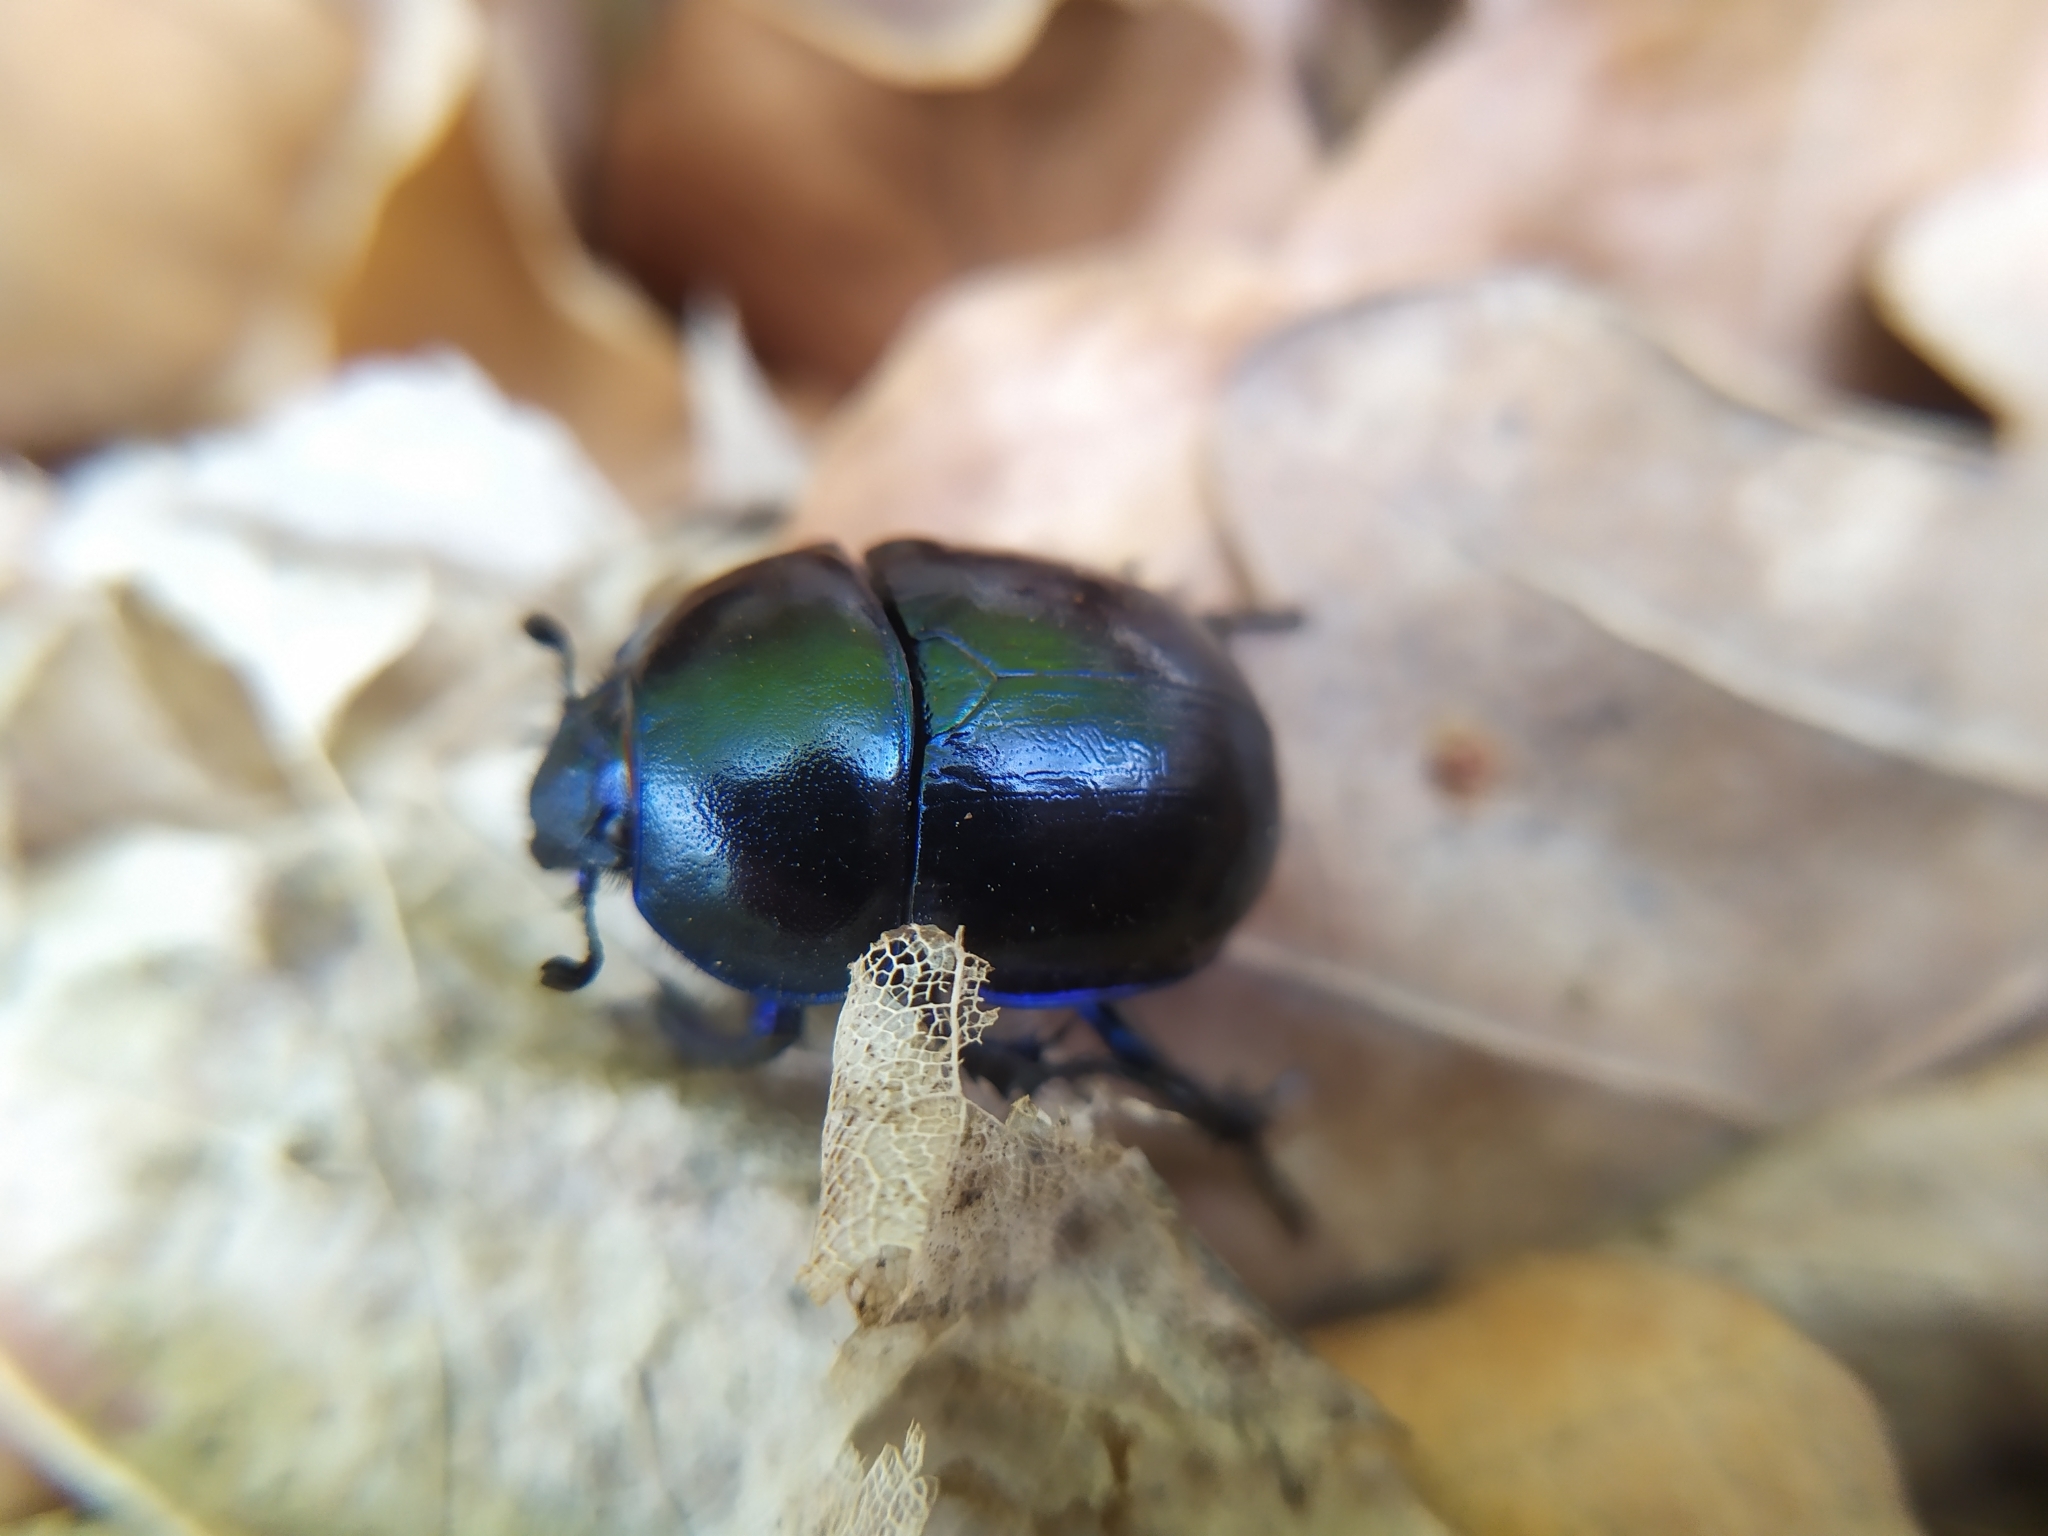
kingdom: Animalia
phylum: Arthropoda
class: Insecta
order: Coleoptera
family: Geotrupidae
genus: Trypocopris
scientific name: Trypocopris vernalis
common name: Spring dumbledor
